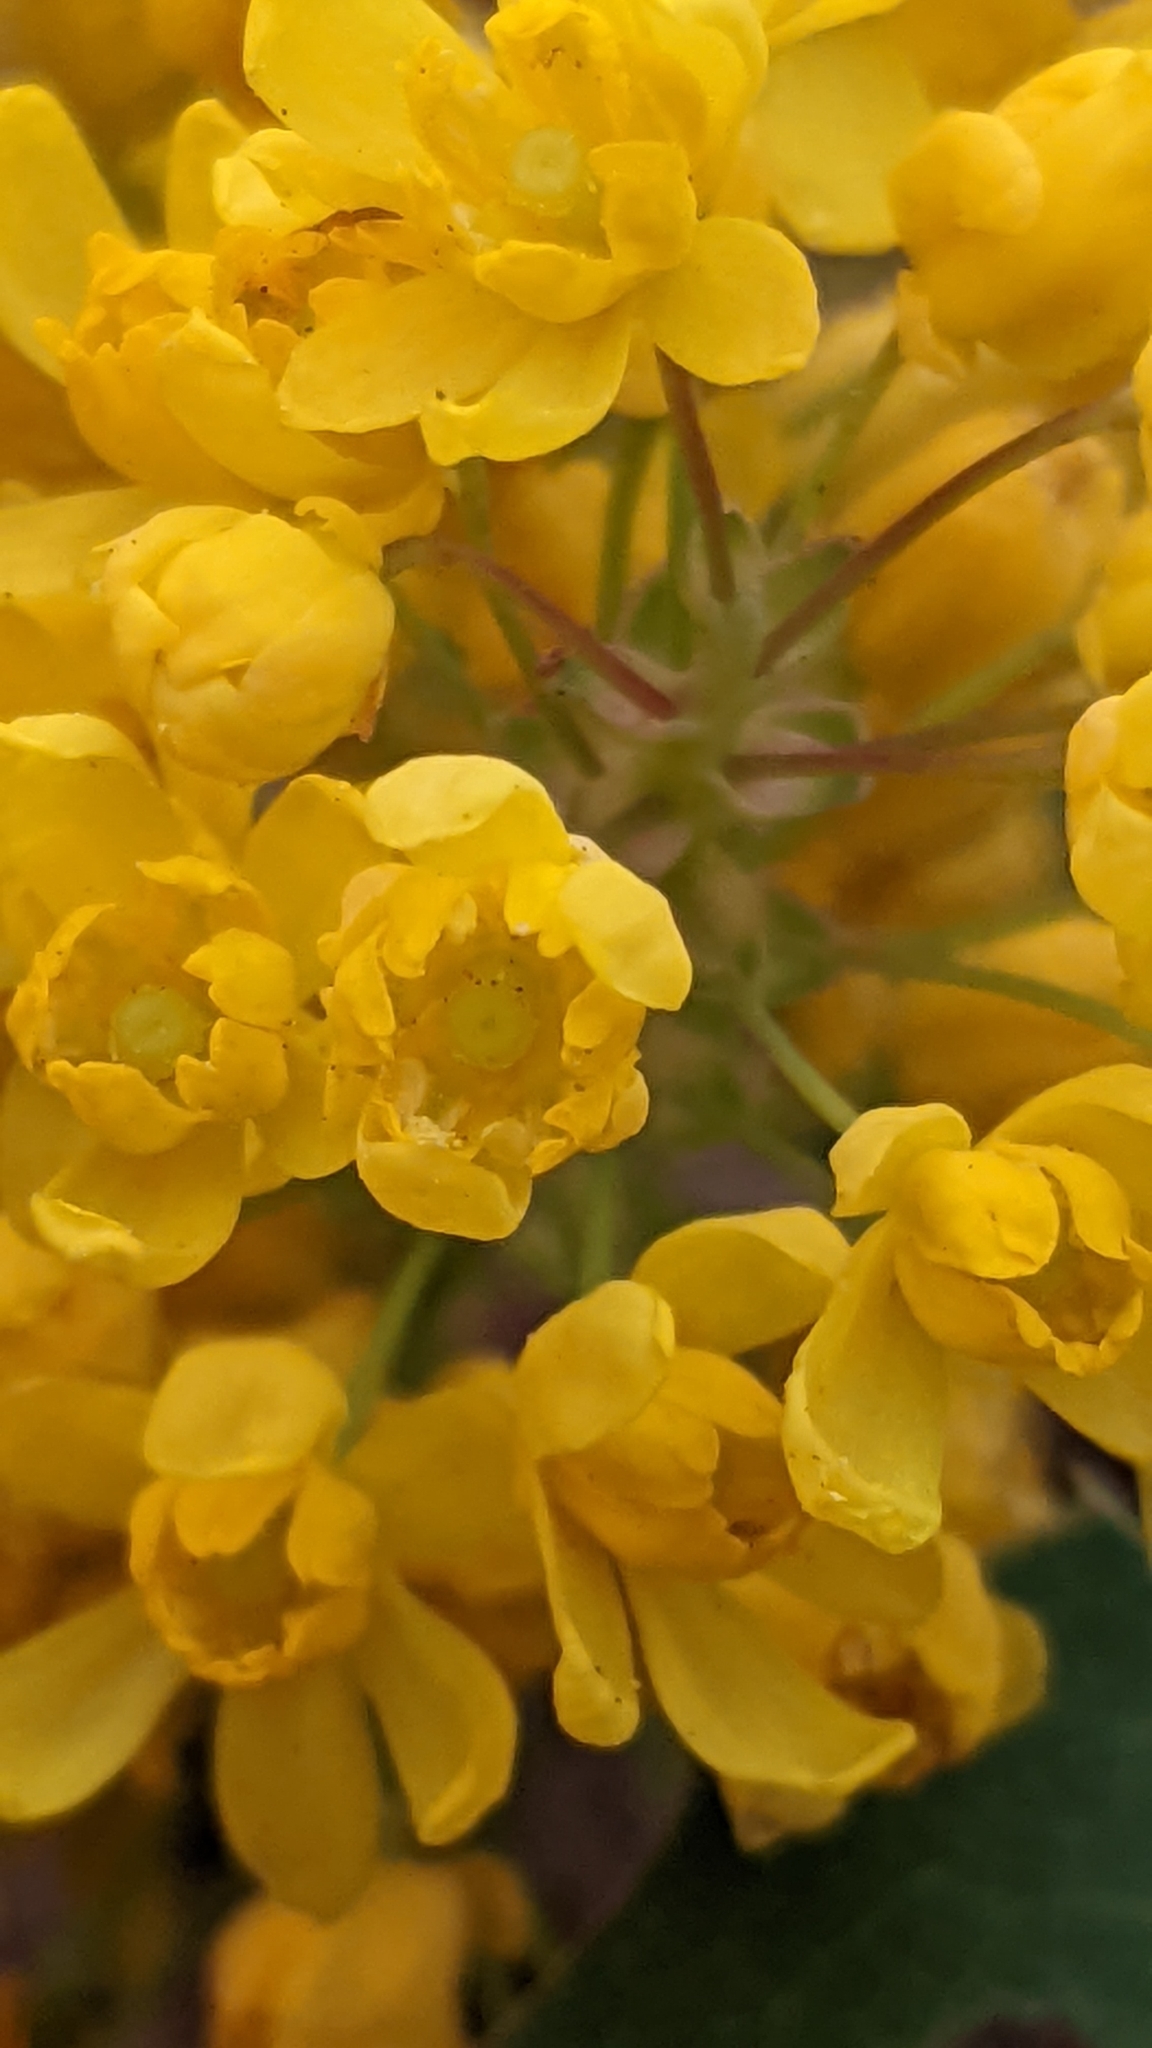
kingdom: Plantae
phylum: Tracheophyta
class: Magnoliopsida
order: Ranunculales
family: Berberidaceae
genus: Mahonia
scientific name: Mahonia repens
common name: Creeping oregon-grape
